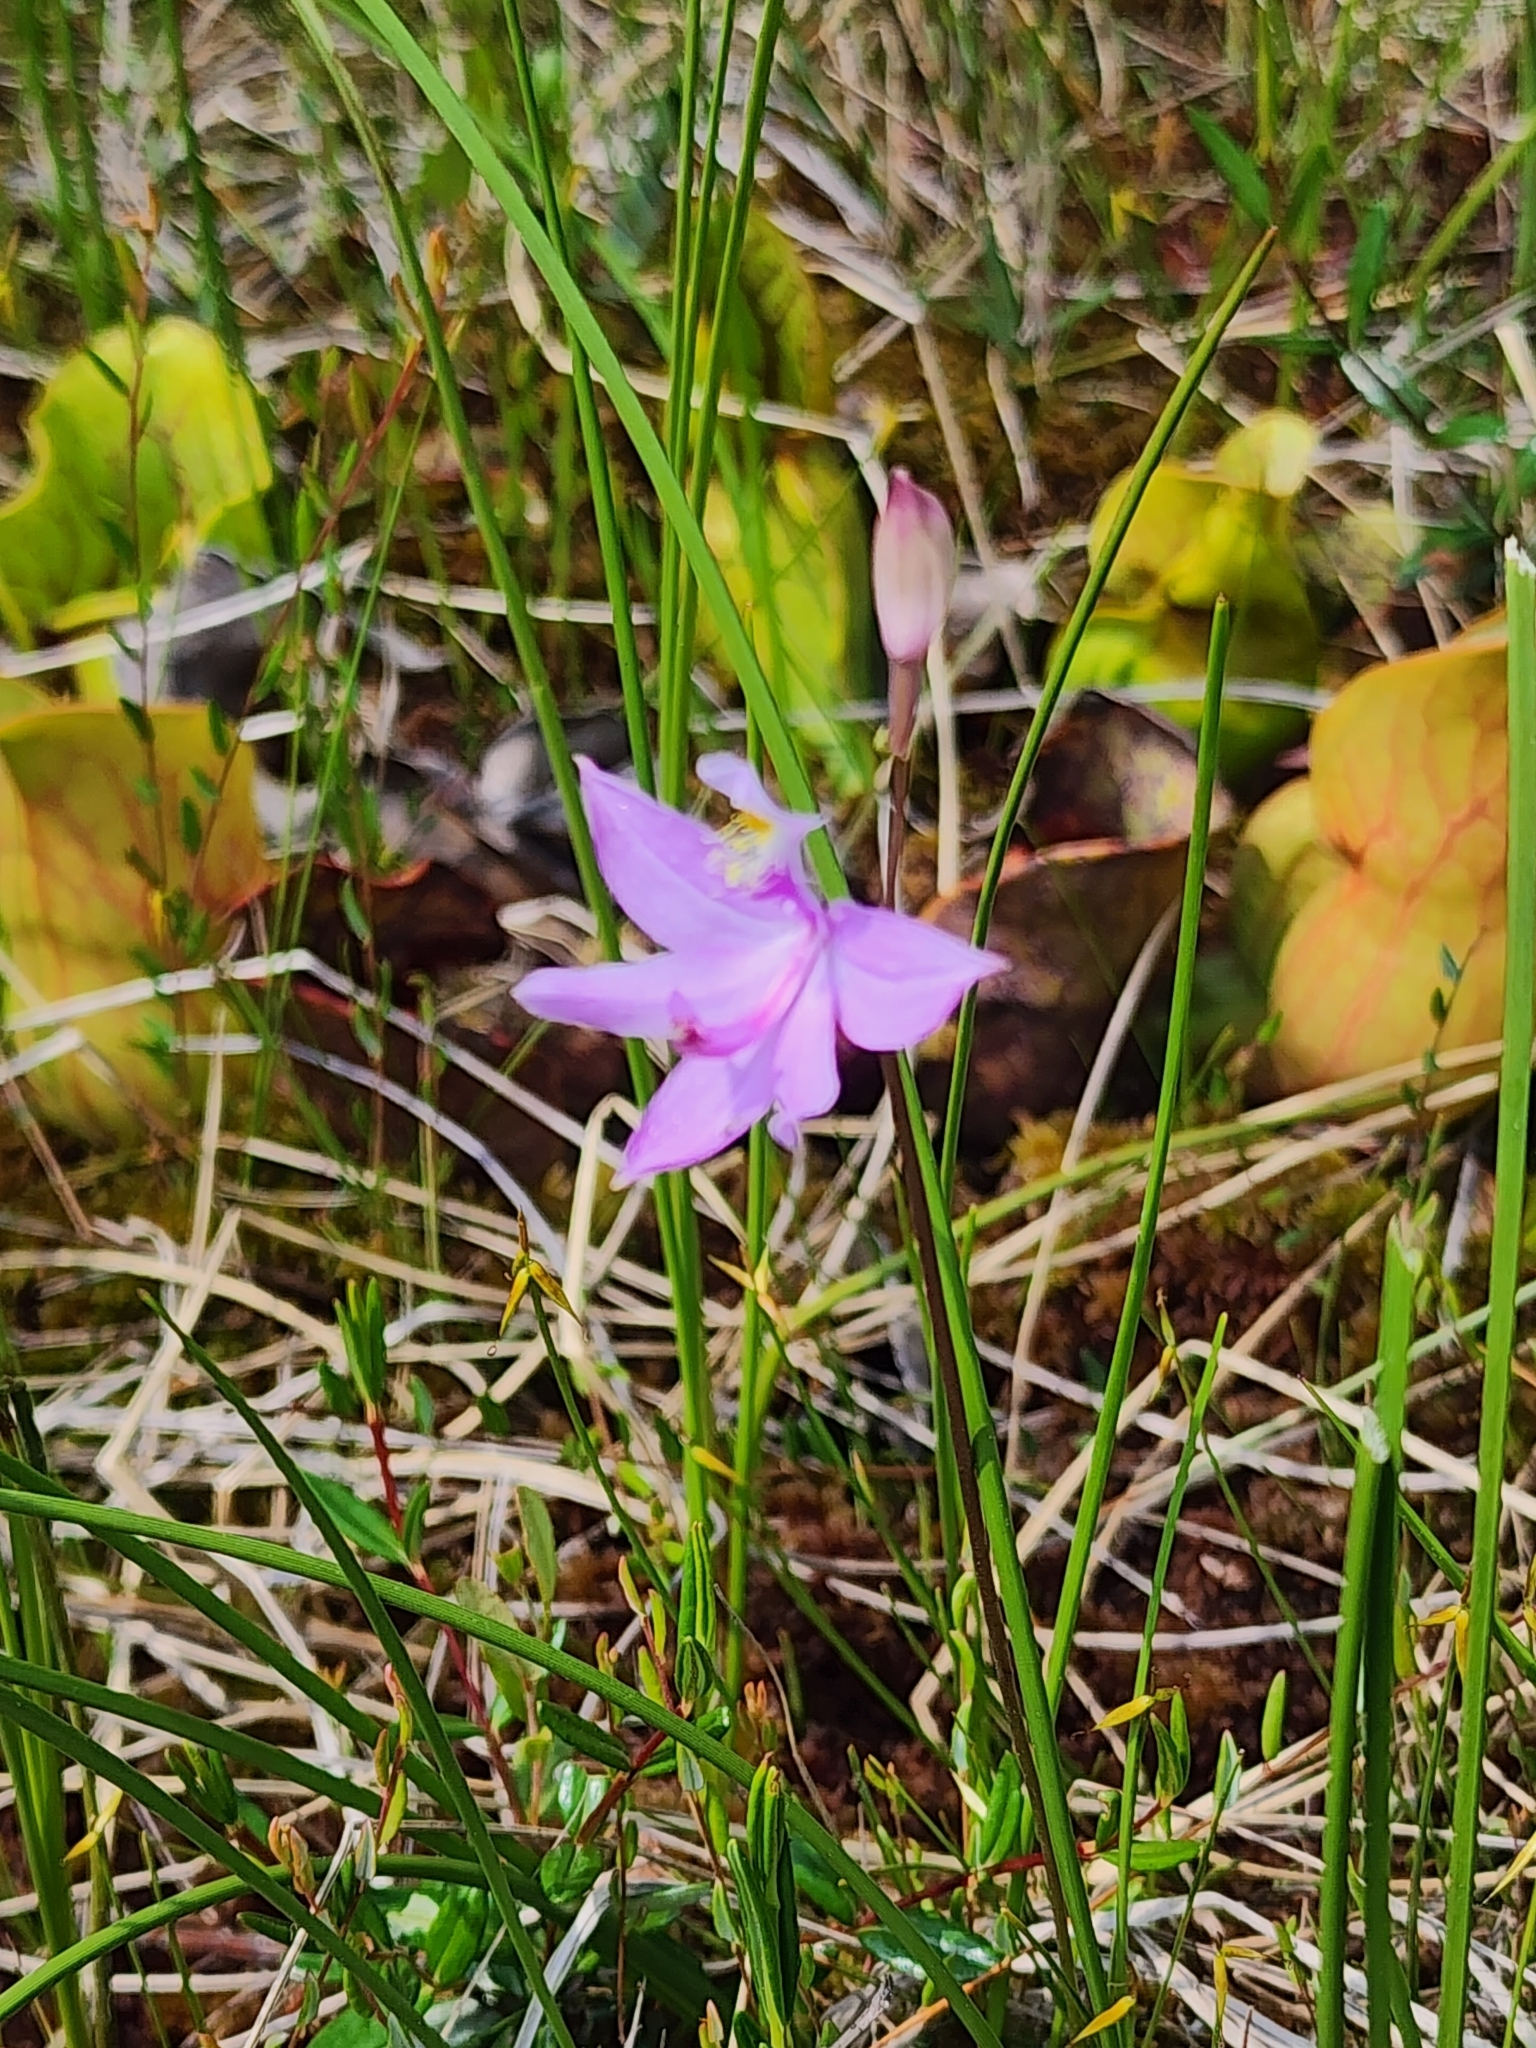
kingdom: Plantae
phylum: Tracheophyta
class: Liliopsida
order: Asparagales
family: Orchidaceae
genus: Calopogon
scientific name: Calopogon tuberosus
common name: Grass-pink
